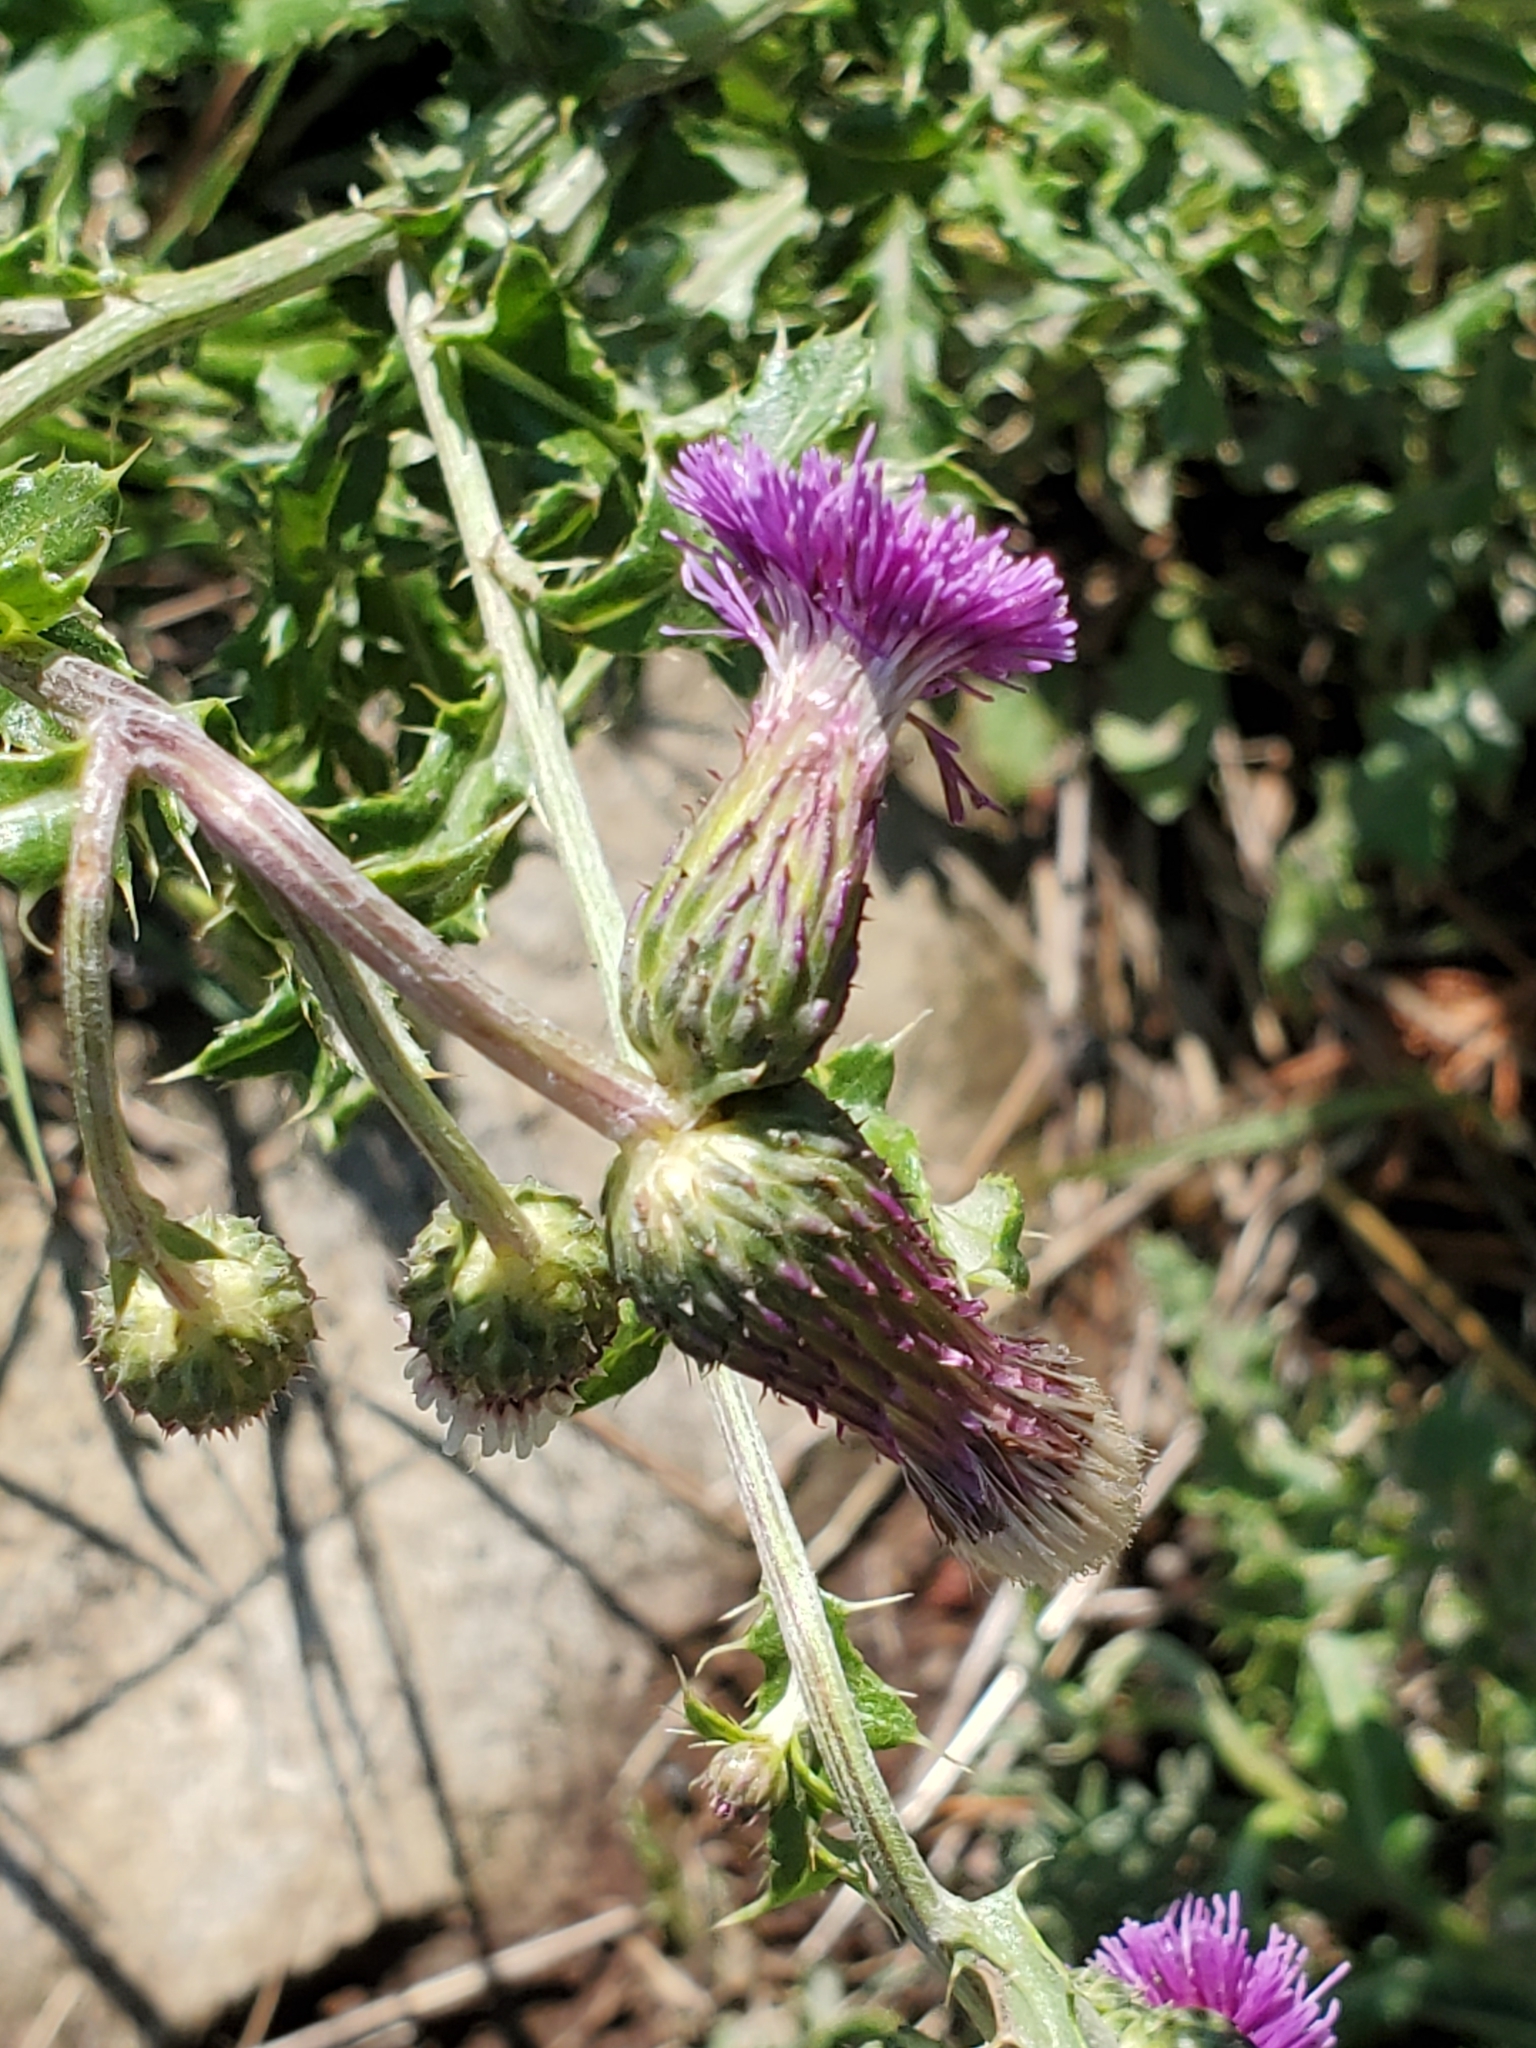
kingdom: Plantae
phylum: Tracheophyta
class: Magnoliopsida
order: Asterales
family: Asteraceae
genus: Cirsium
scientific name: Cirsium arvense
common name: Creeping thistle
